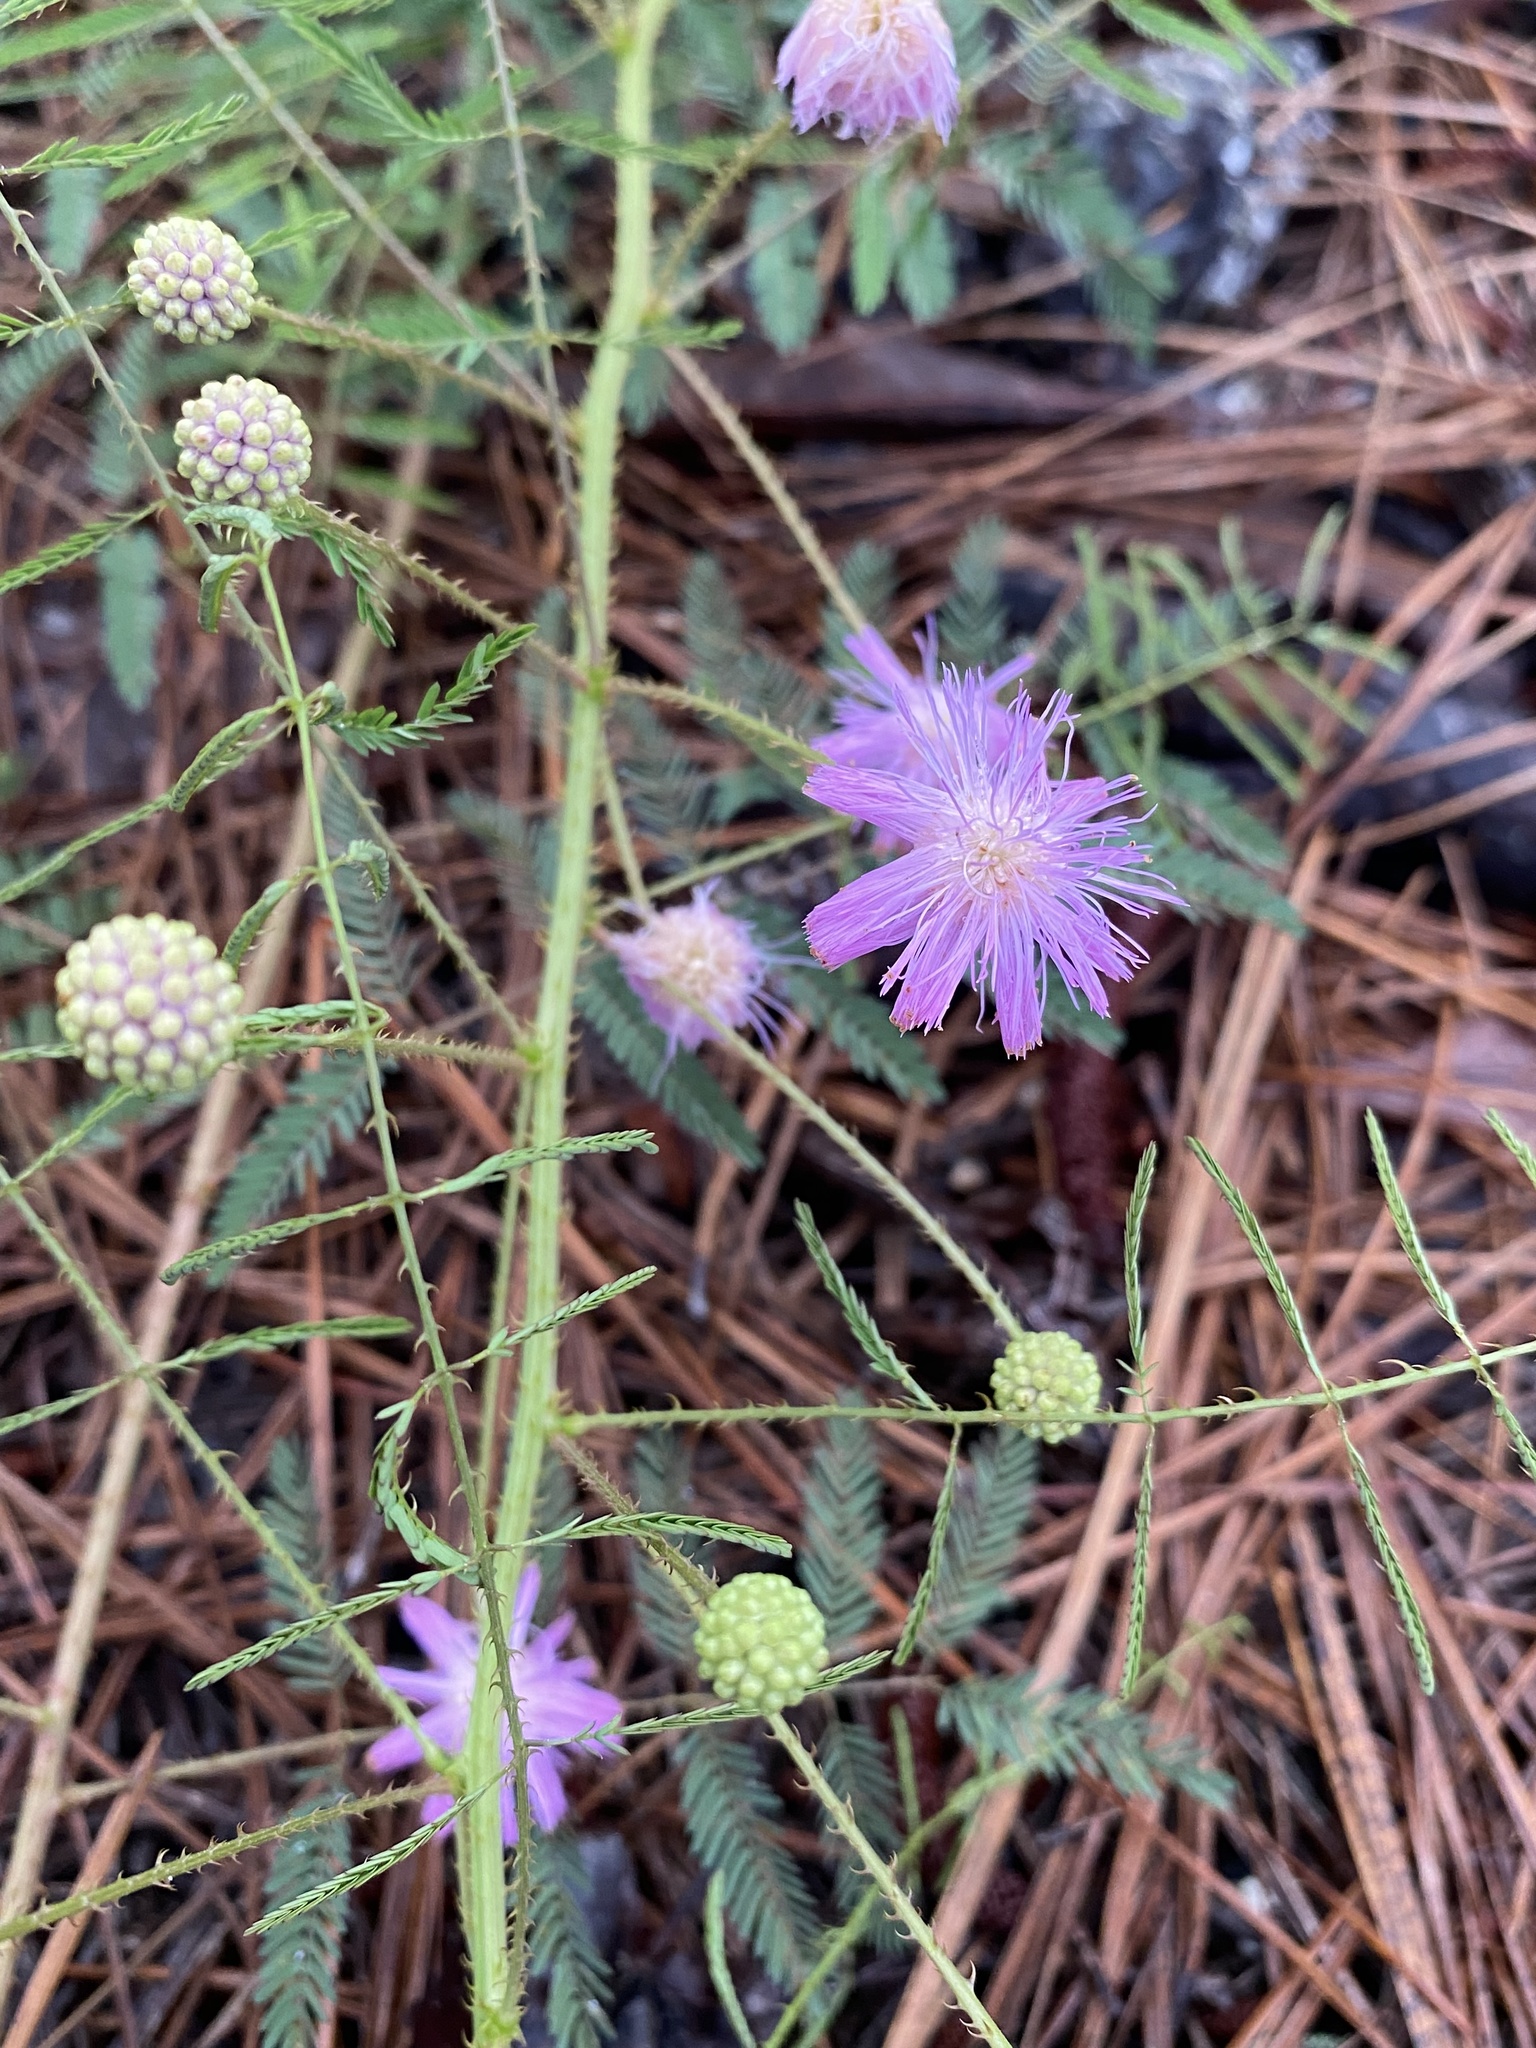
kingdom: Plantae
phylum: Tracheophyta
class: Magnoliopsida
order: Fabales
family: Fabaceae
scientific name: Fabaceae
